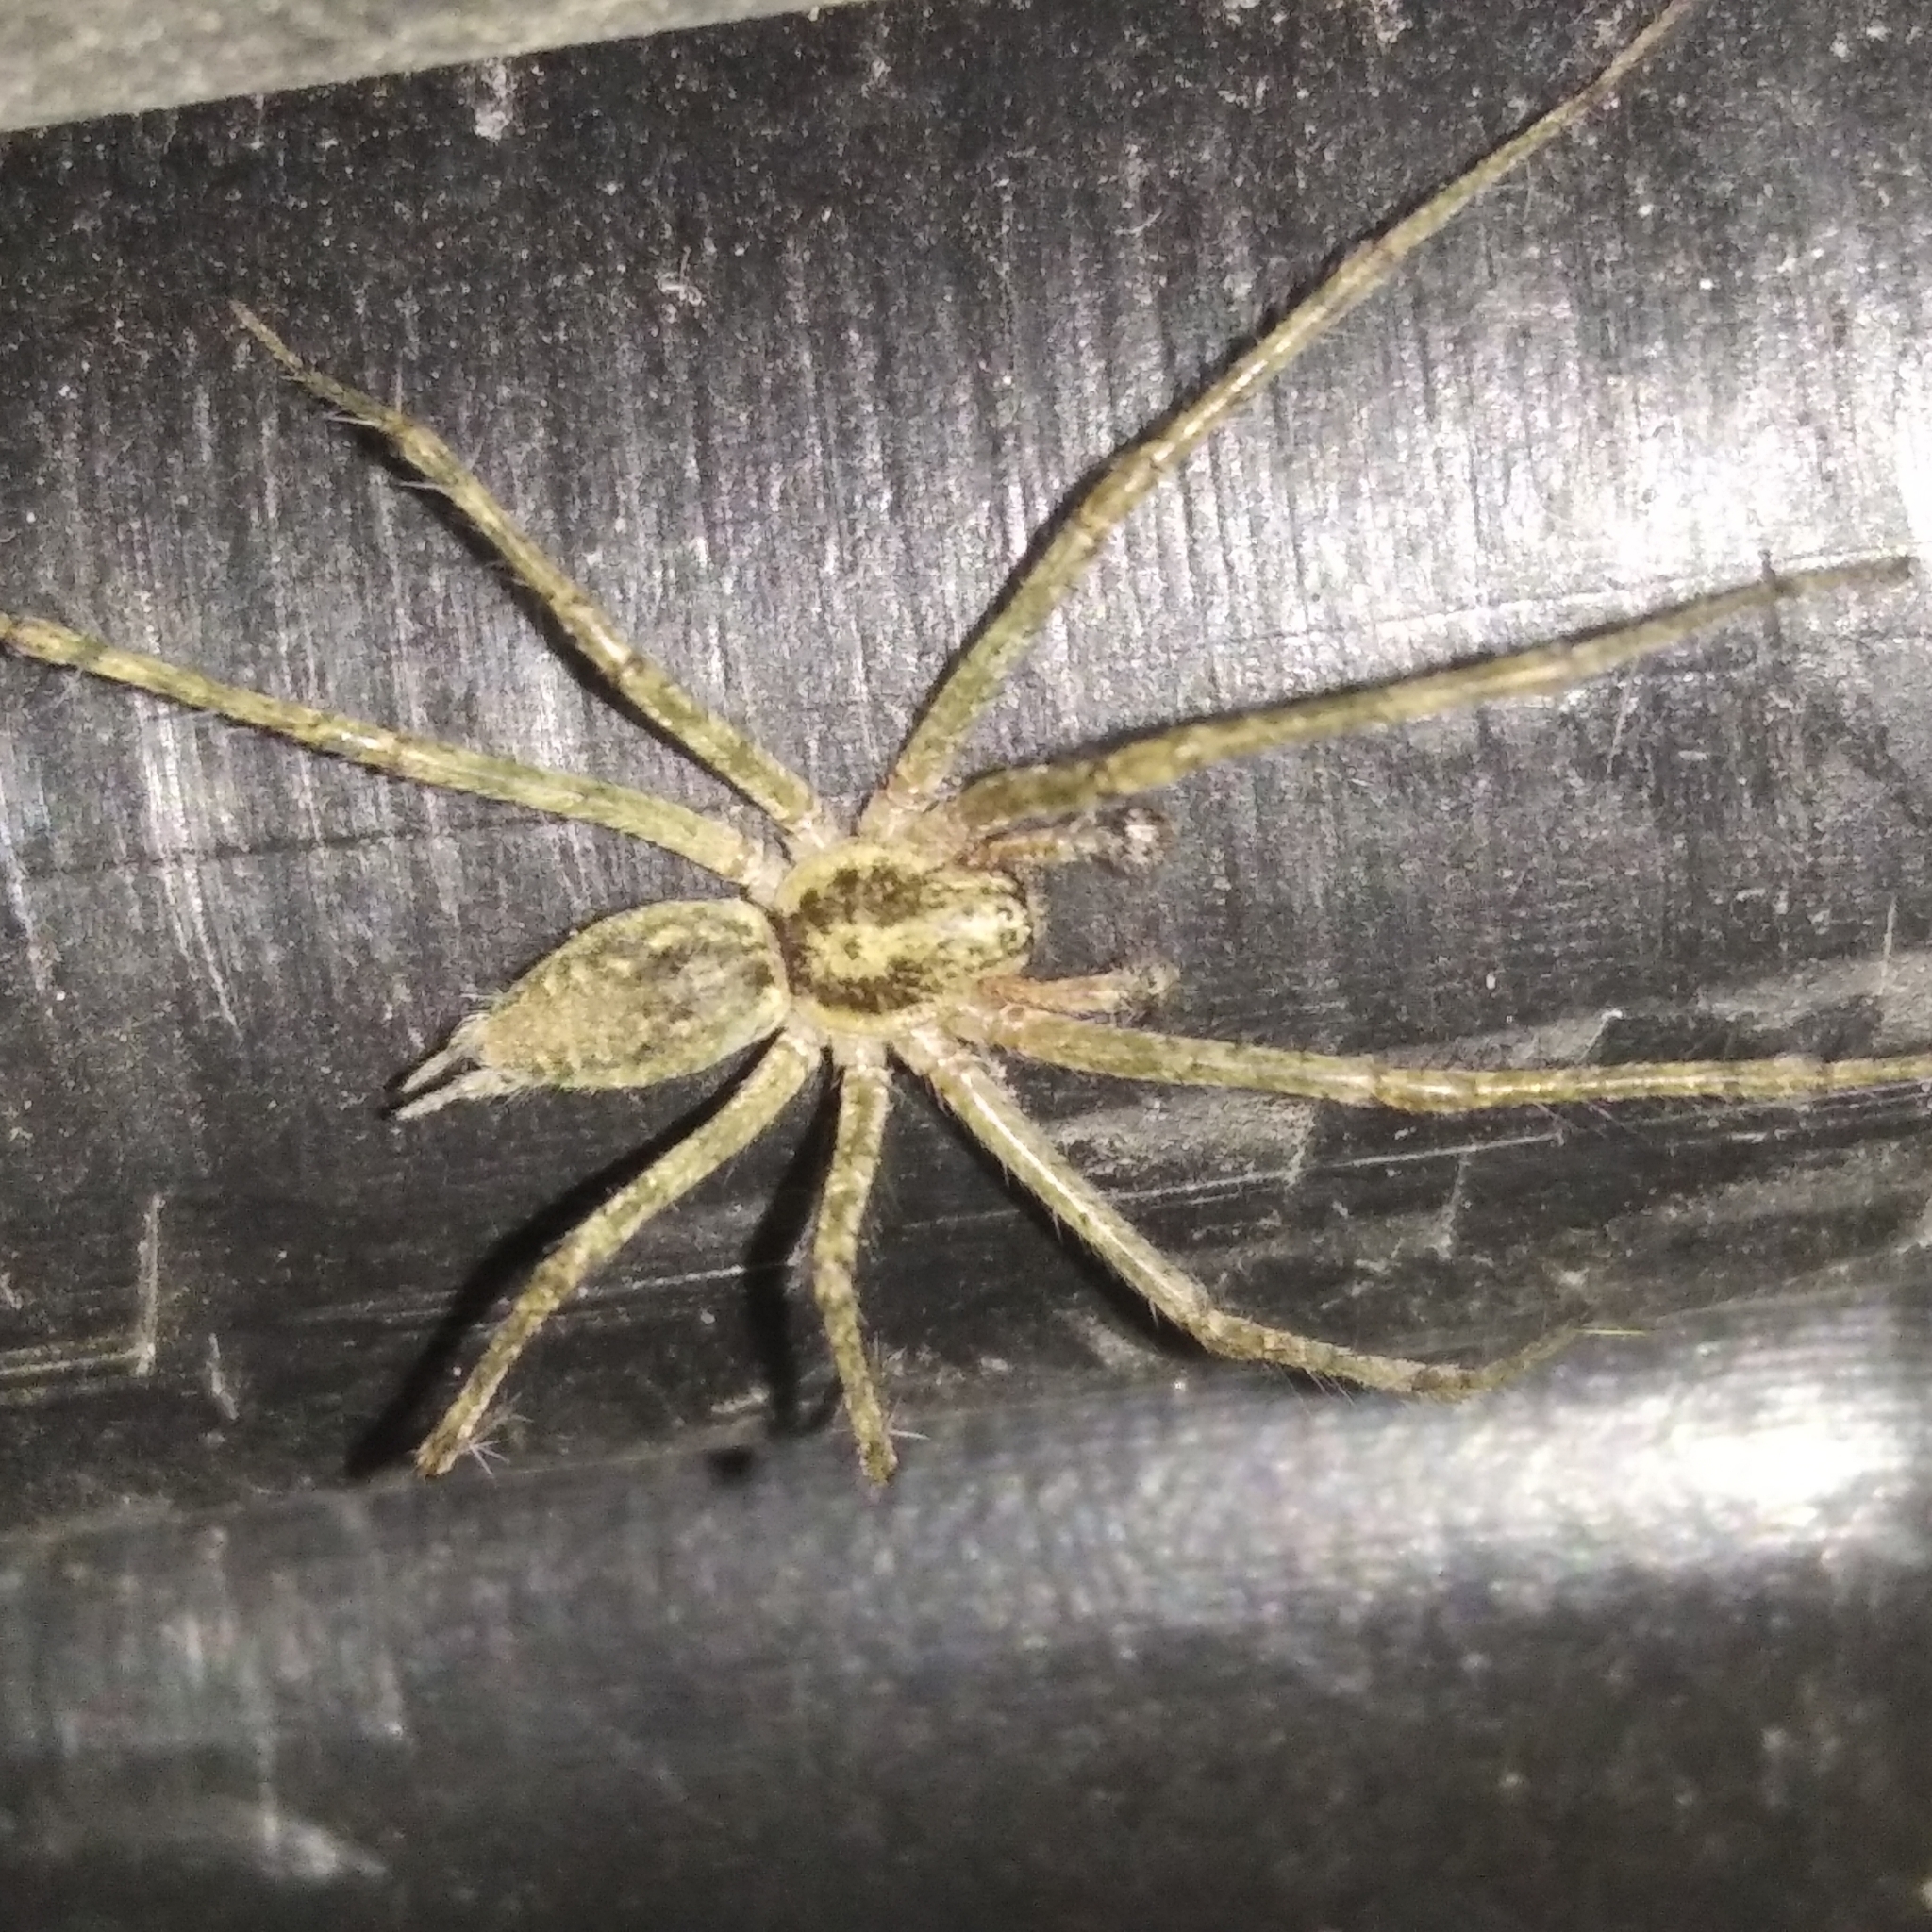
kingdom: Animalia
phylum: Arthropoda
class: Arachnida
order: Araneae
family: Agelenidae
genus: Allagelena
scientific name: Allagelena gracilens
